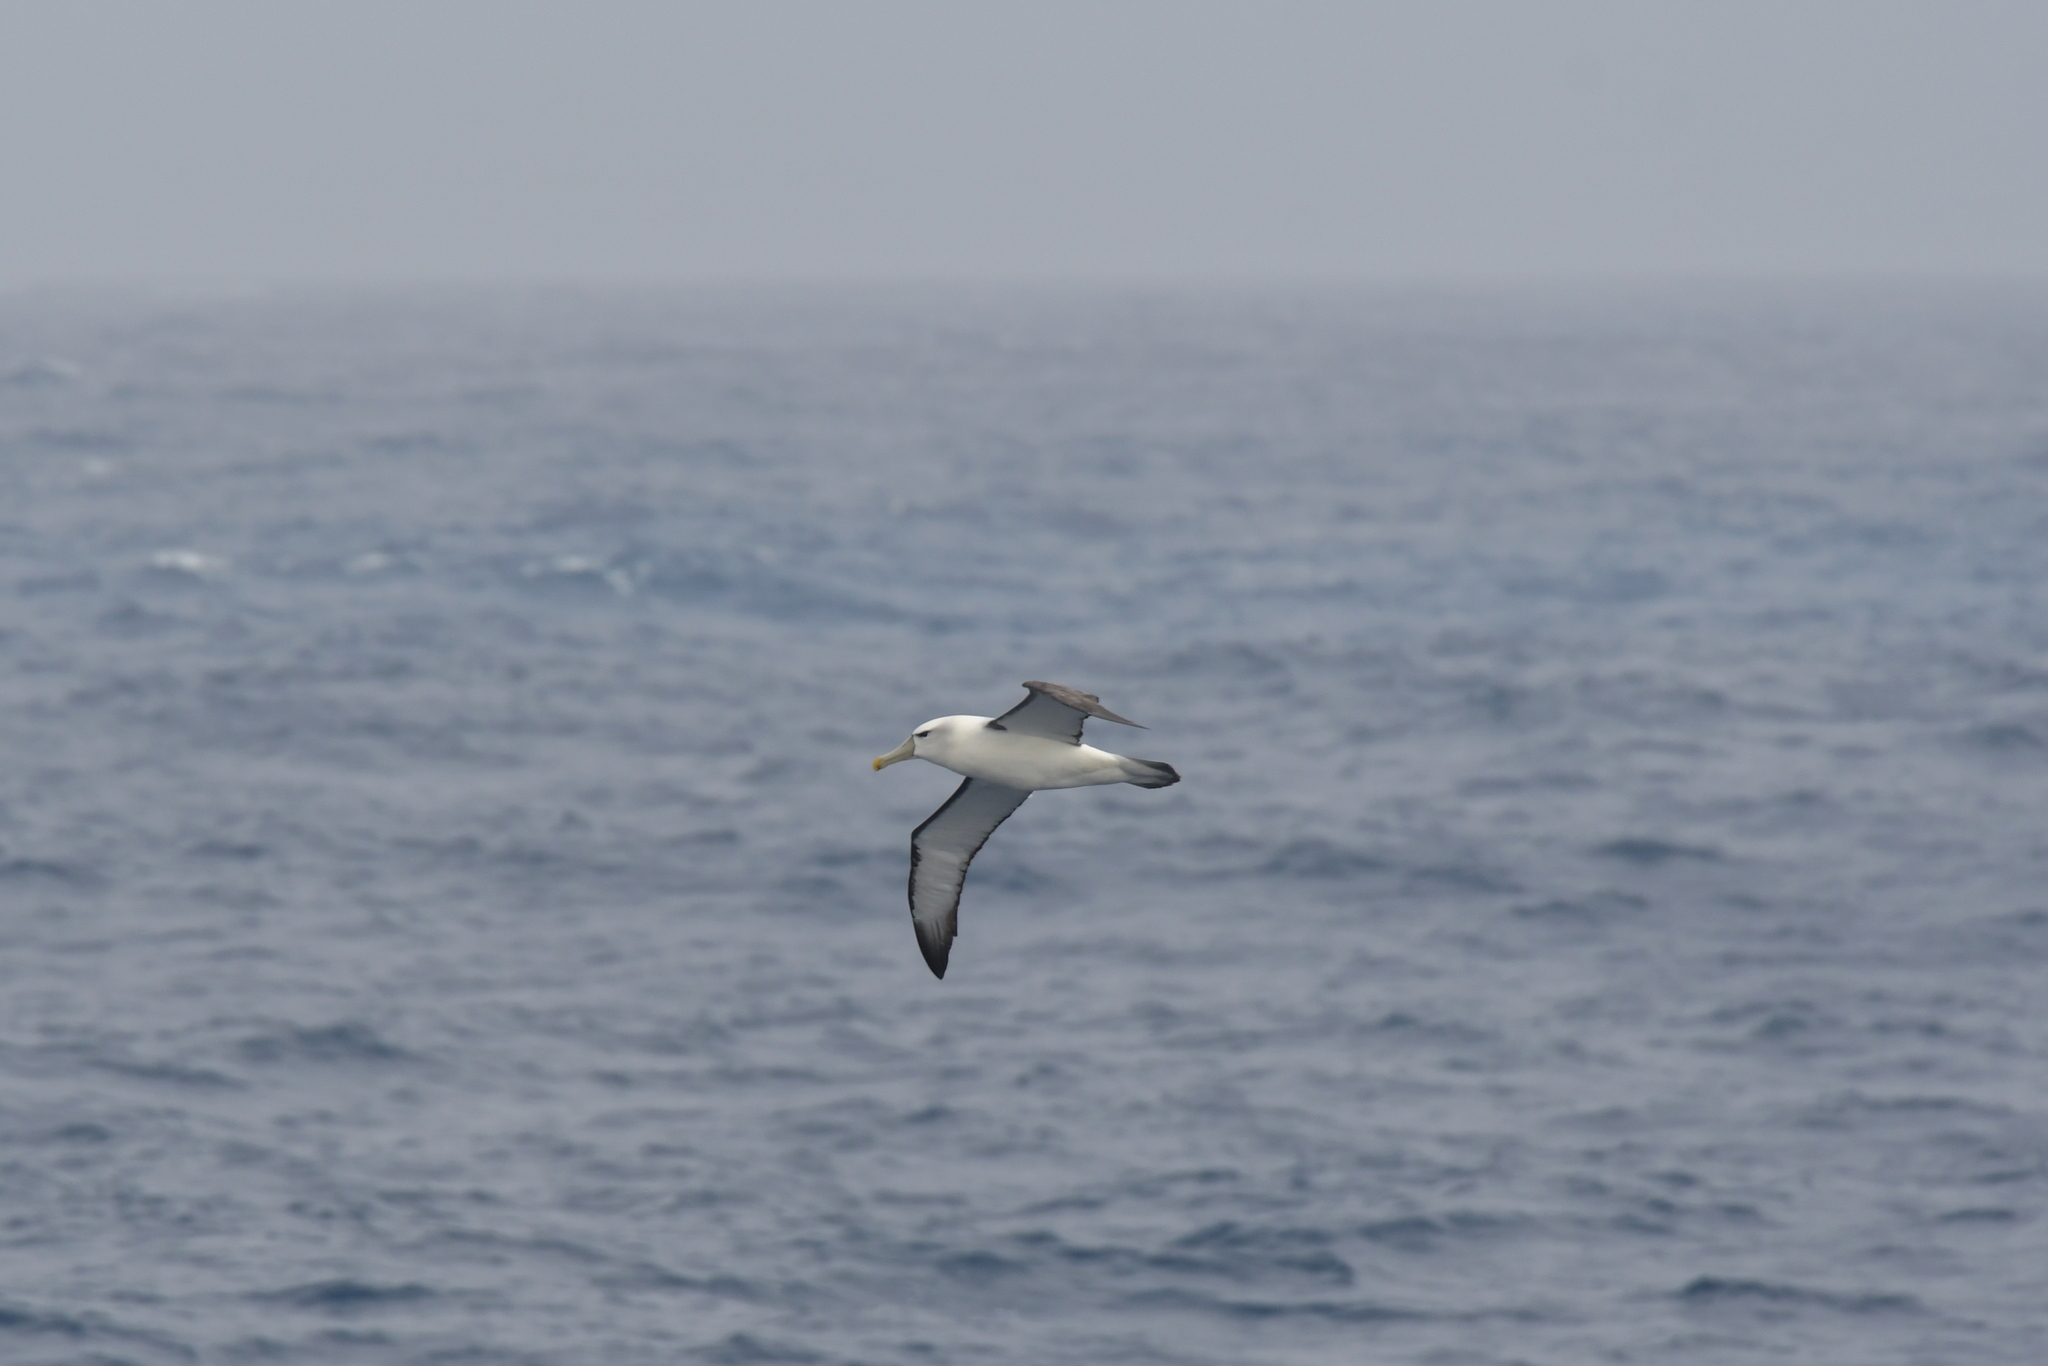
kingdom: Animalia
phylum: Chordata
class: Aves
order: Procellariiformes
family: Diomedeidae
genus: Thalassarche
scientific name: Thalassarche cauta
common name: Shy albatross
